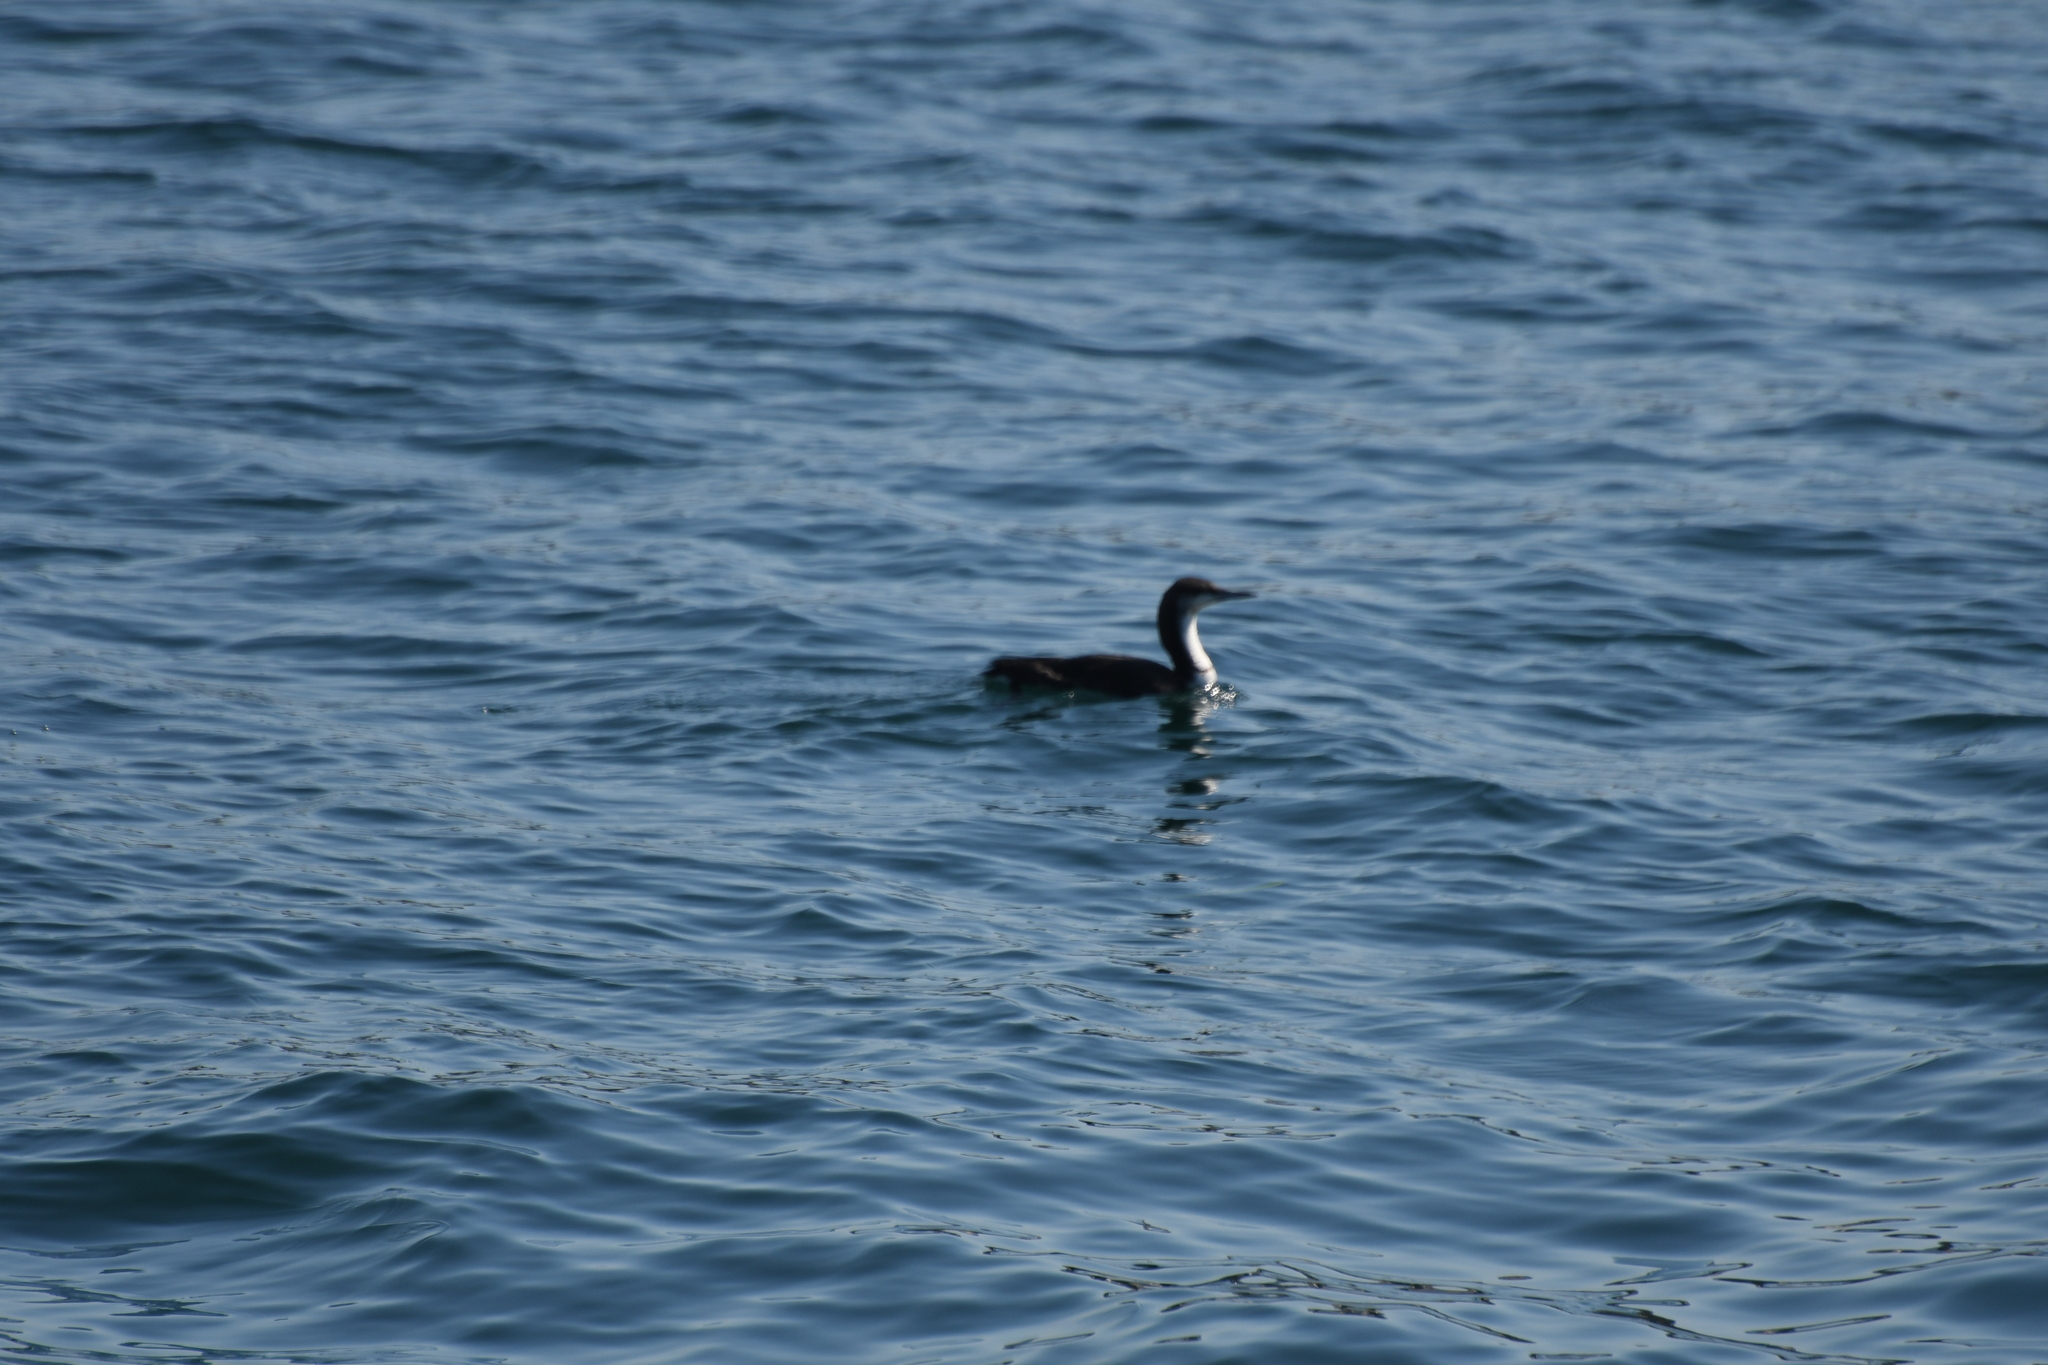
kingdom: Animalia
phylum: Chordata
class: Aves
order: Gaviiformes
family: Gaviidae
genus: Gavia
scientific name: Gavia pacifica
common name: Pacific loon
